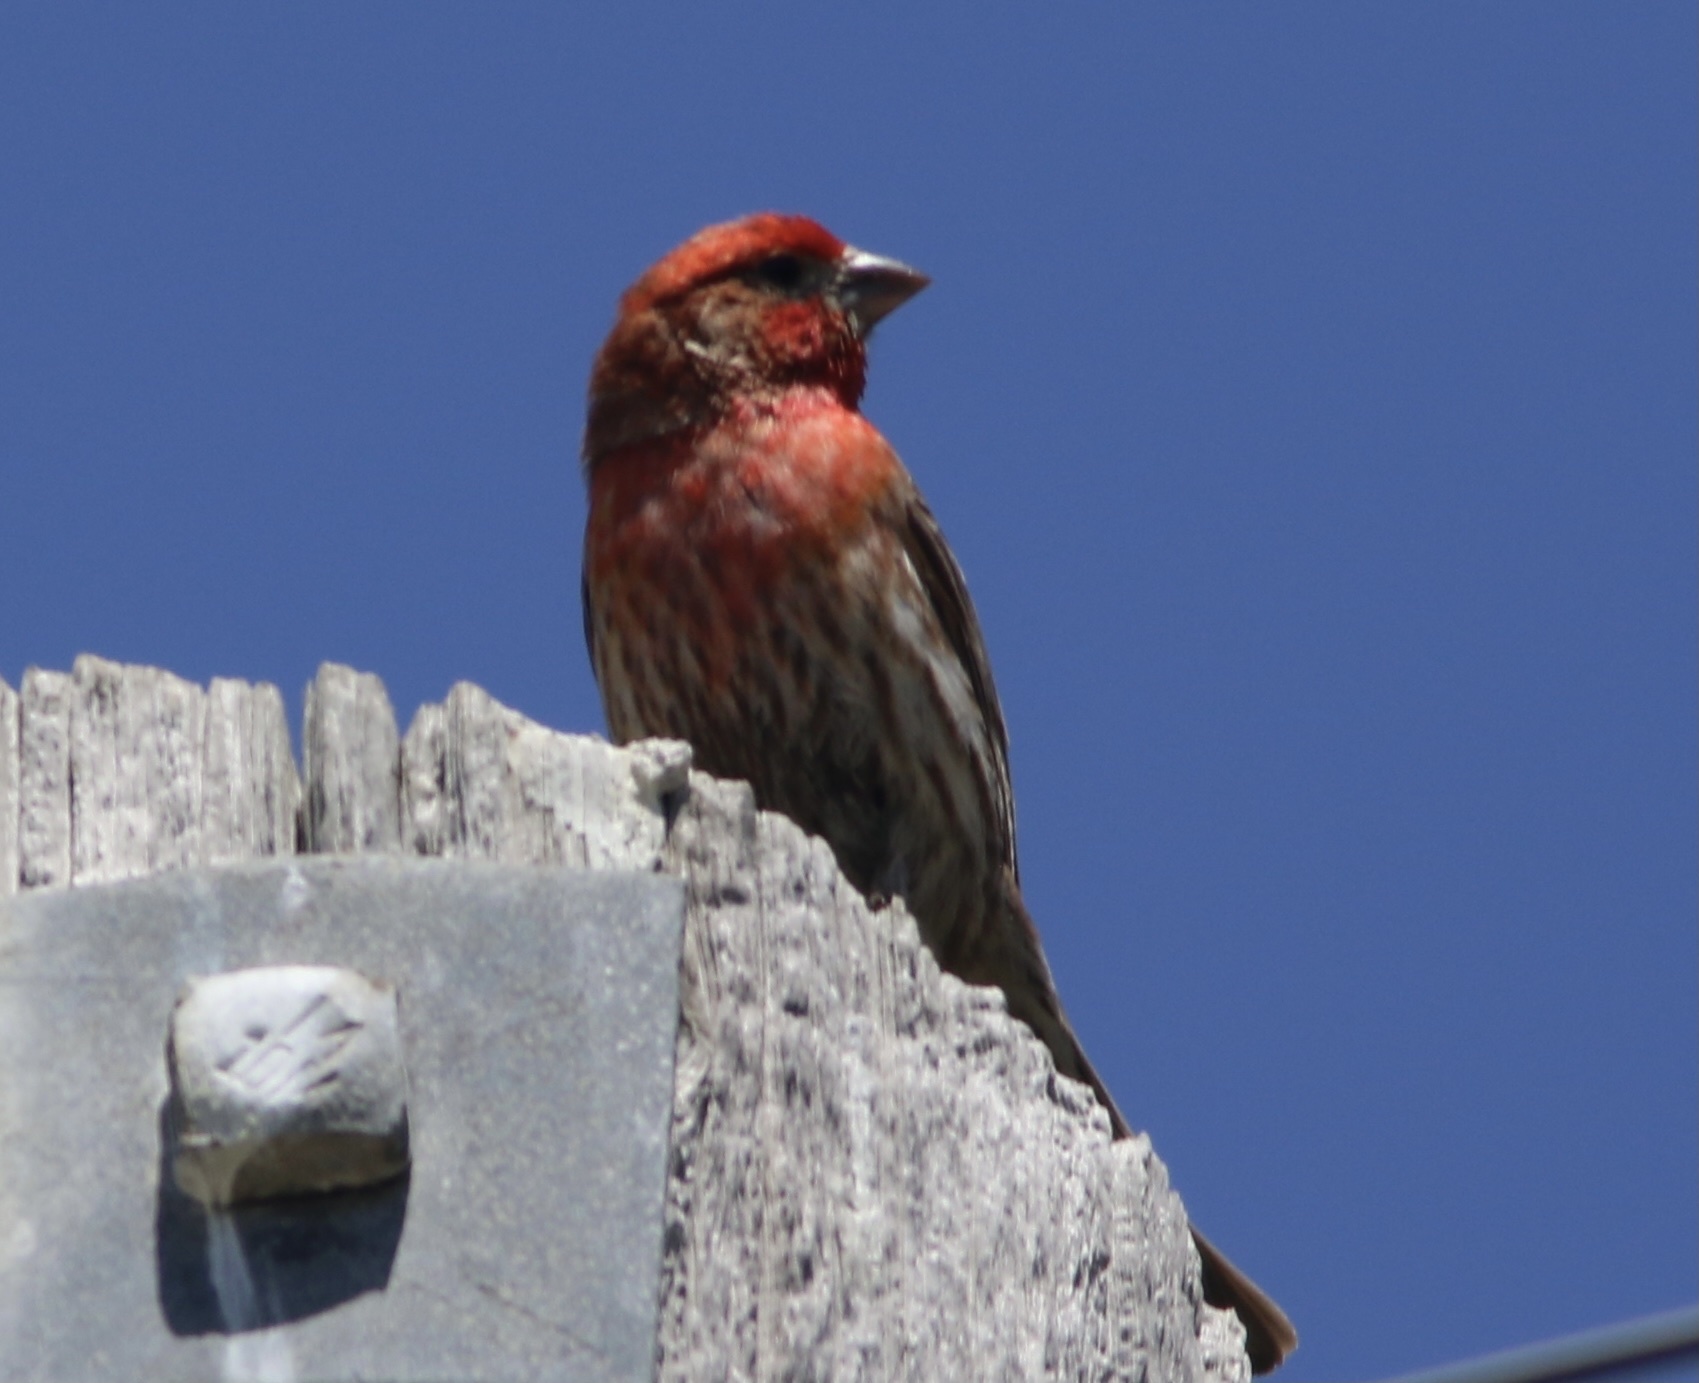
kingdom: Animalia
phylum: Chordata
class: Aves
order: Passeriformes
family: Fringillidae
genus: Haemorhous
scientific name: Haemorhous mexicanus
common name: House finch
